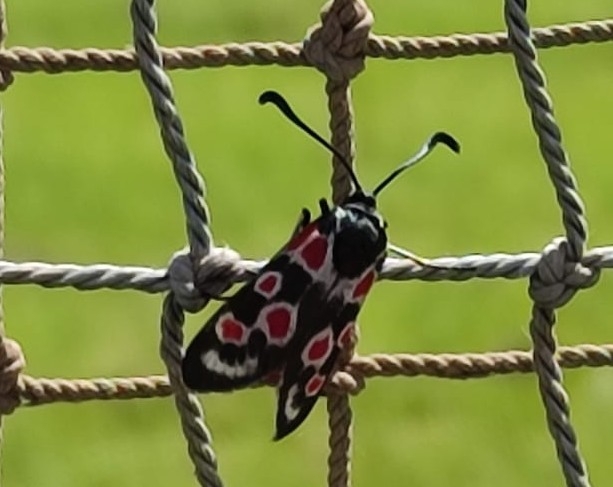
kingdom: Animalia
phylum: Arthropoda
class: Insecta
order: Lepidoptera
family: Zygaenidae
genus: Zygaena
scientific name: Zygaena occitanica
